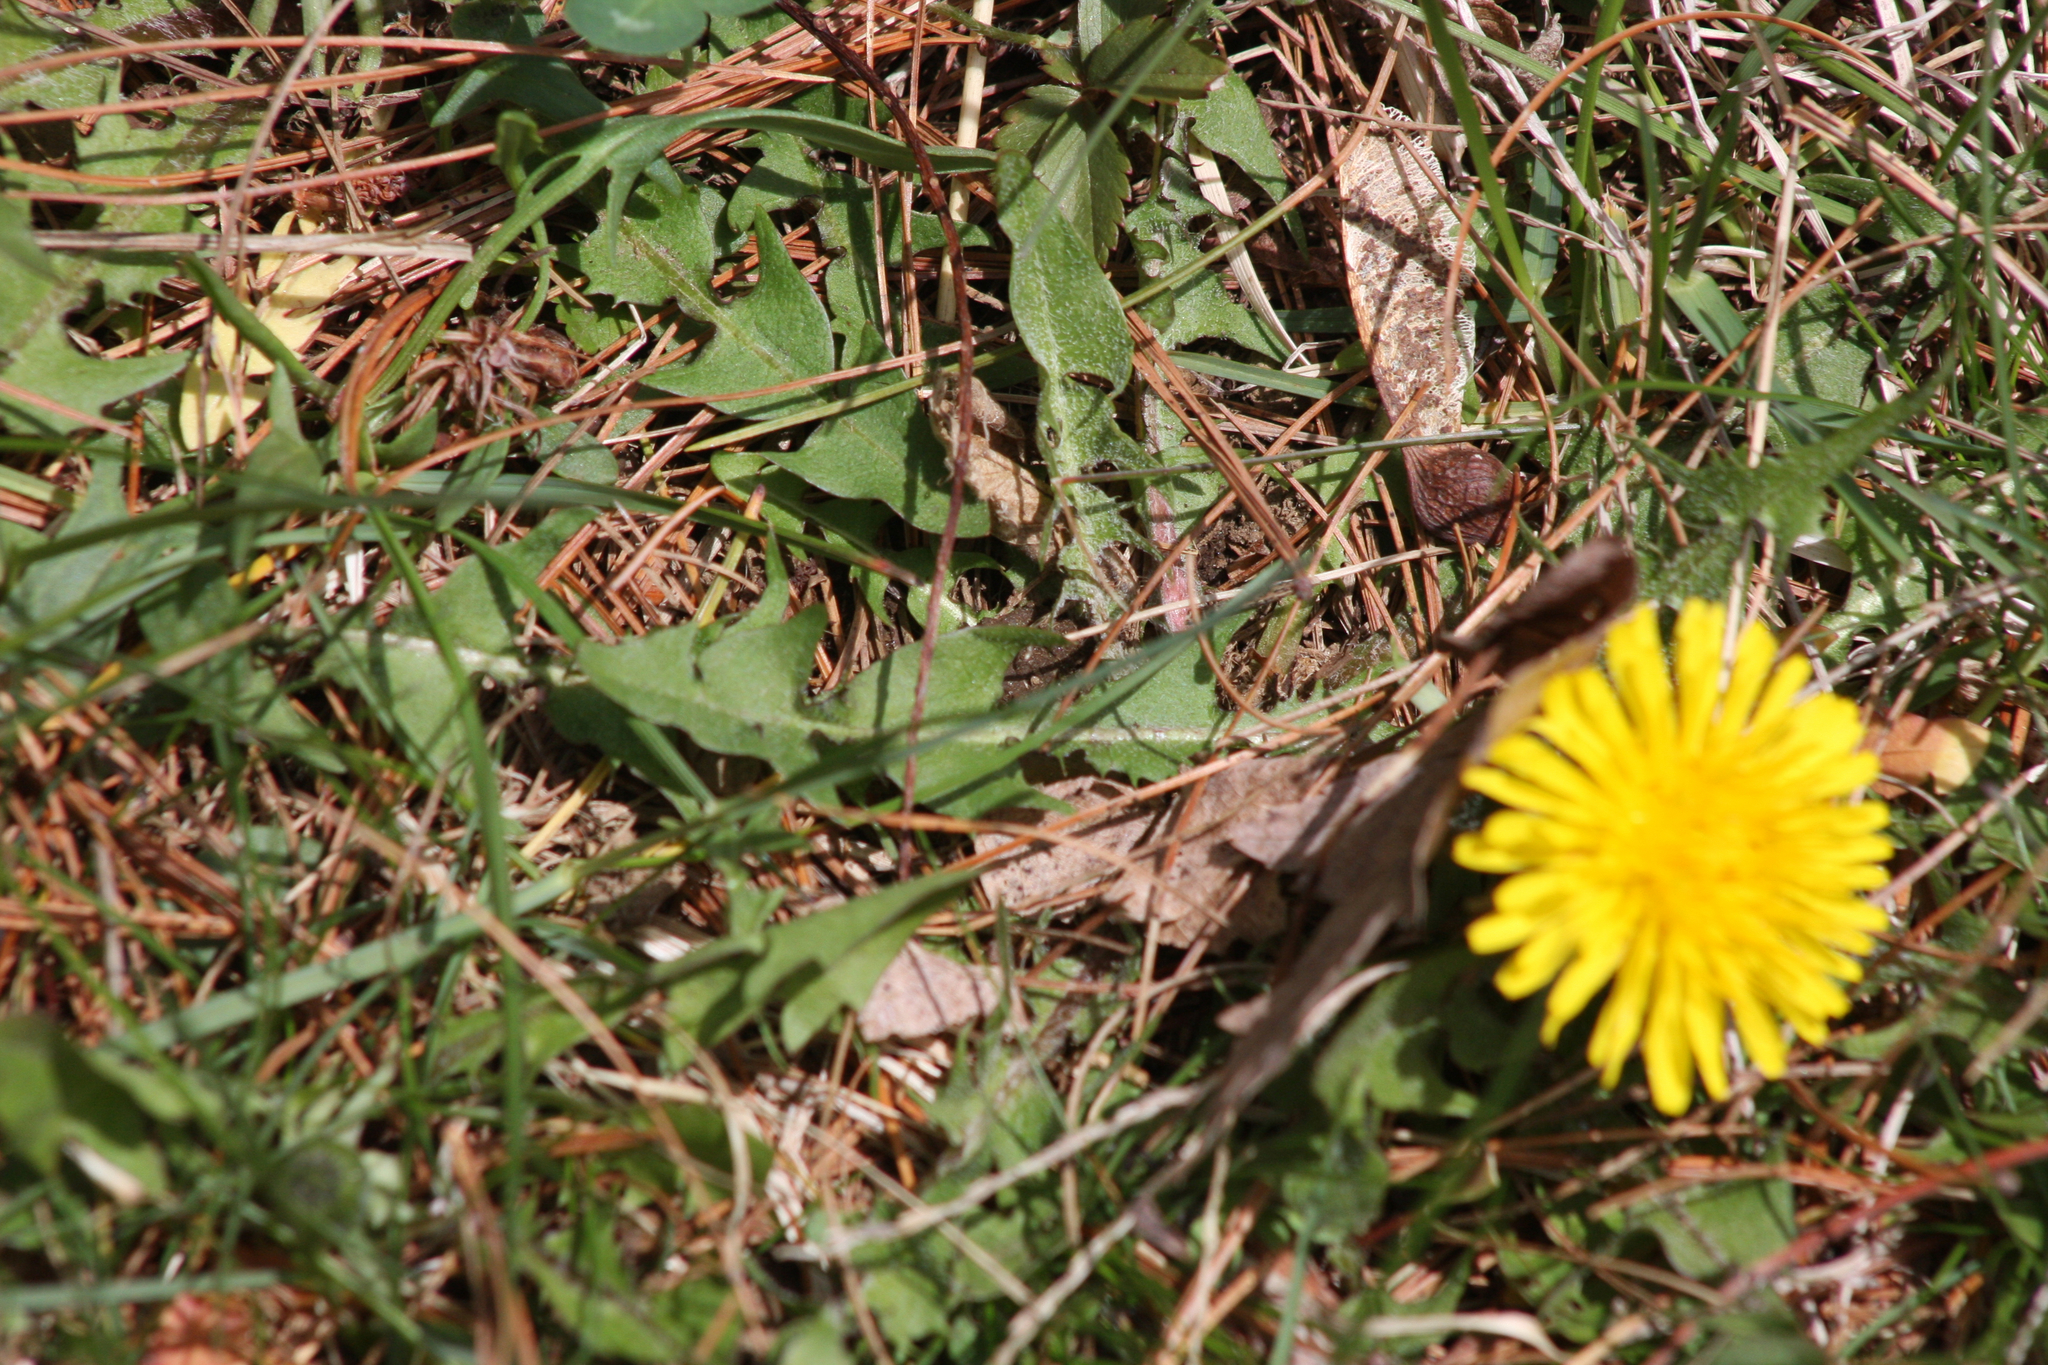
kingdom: Plantae
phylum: Tracheophyta
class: Magnoliopsida
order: Asterales
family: Asteraceae
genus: Taraxacum
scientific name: Taraxacum officinale
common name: Common dandelion
